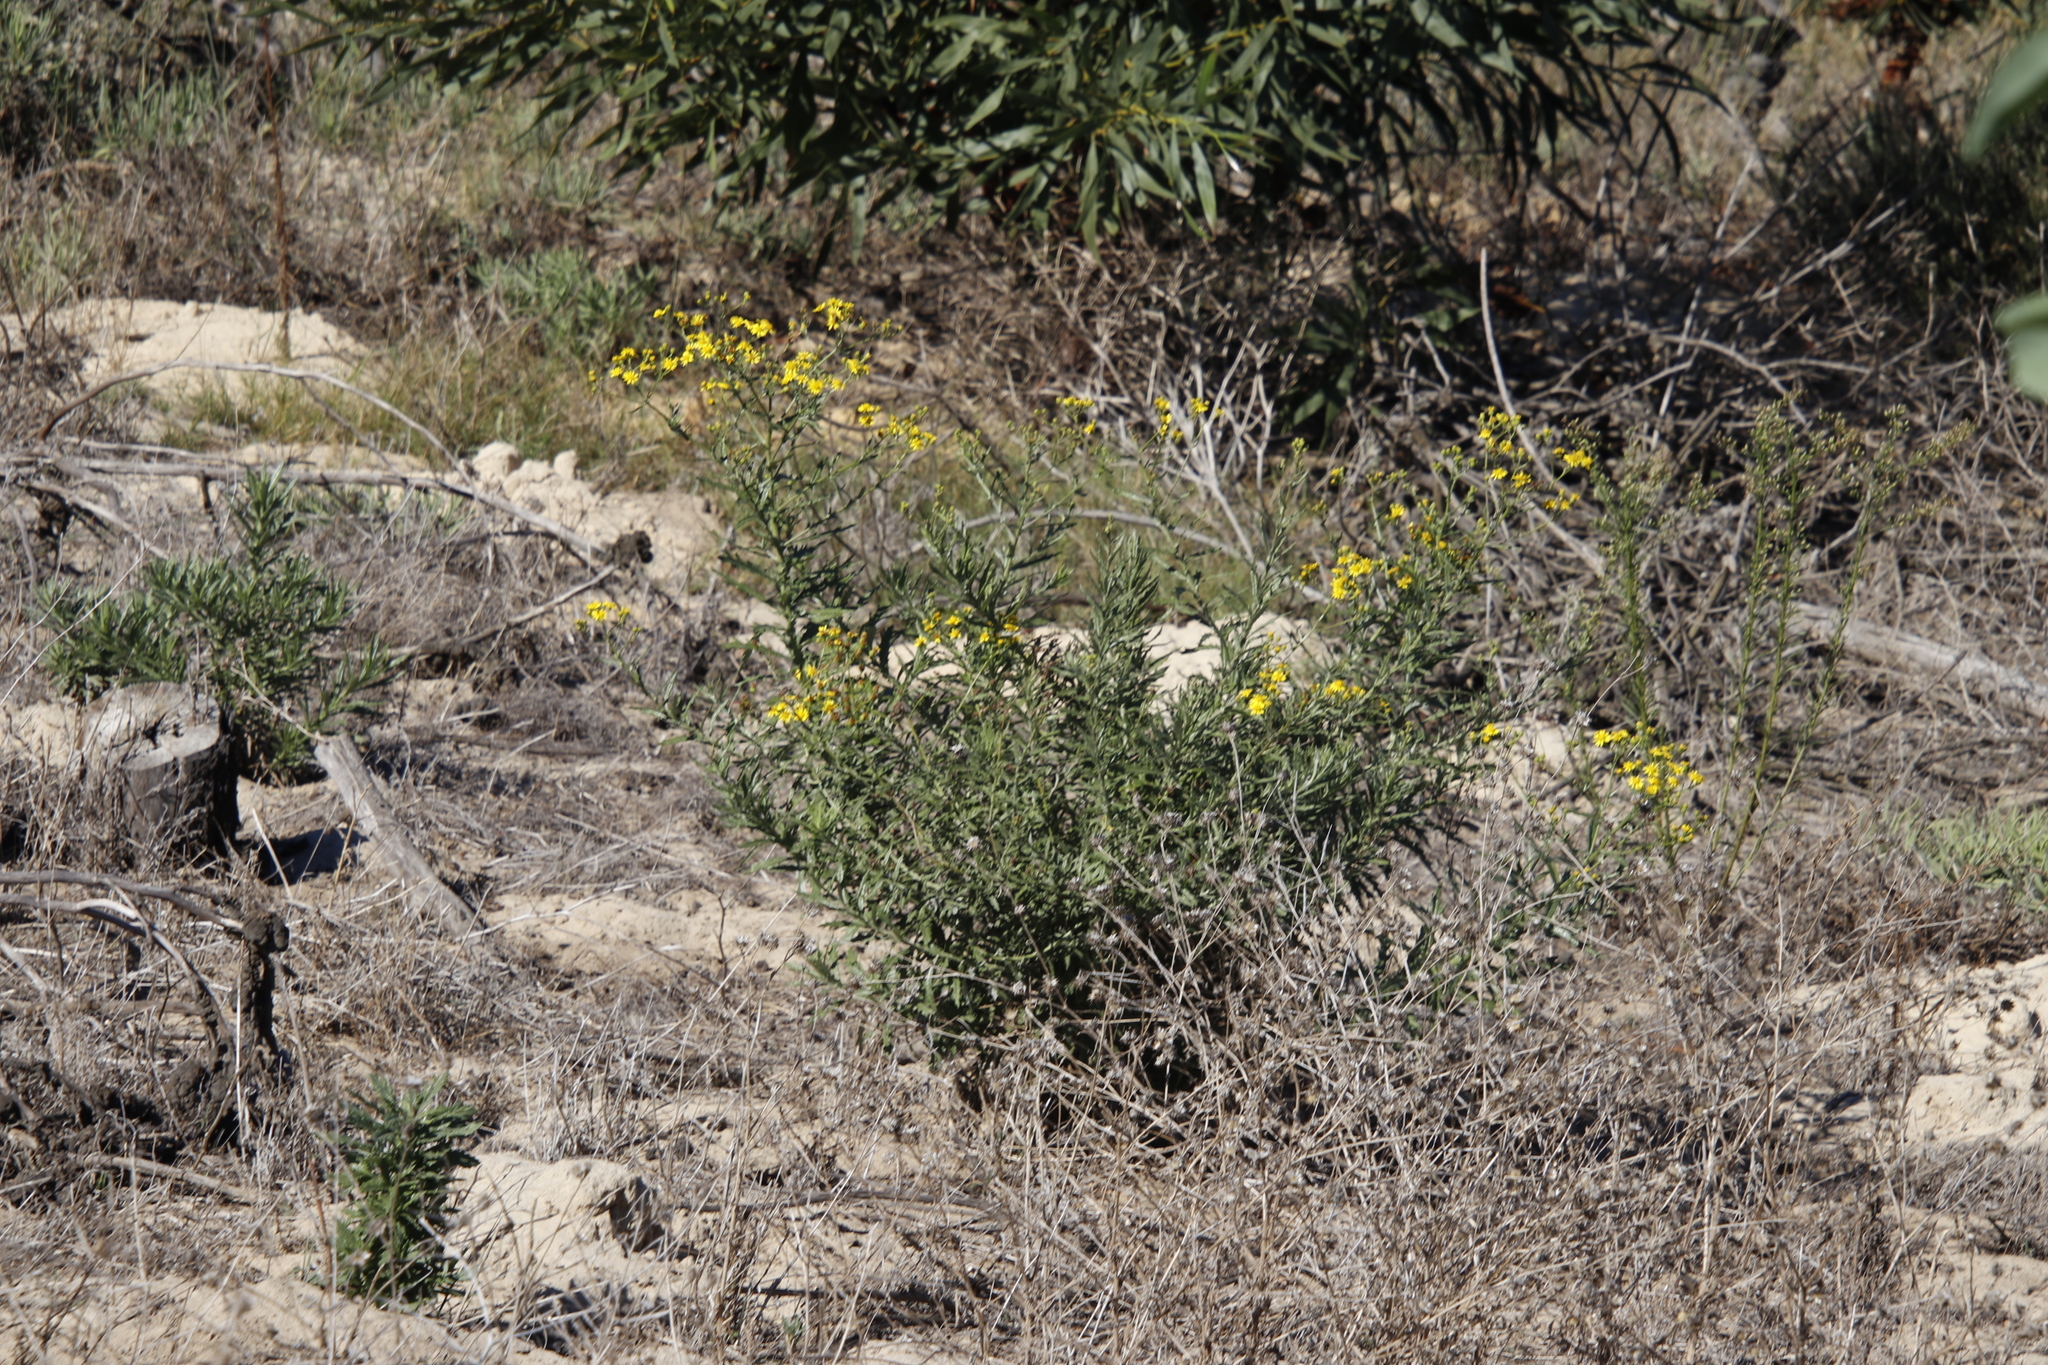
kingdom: Plantae
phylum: Tracheophyta
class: Magnoliopsida
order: Asterales
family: Asteraceae
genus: Senecio
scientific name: Senecio pterophorus
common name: Shoddy ragwort
